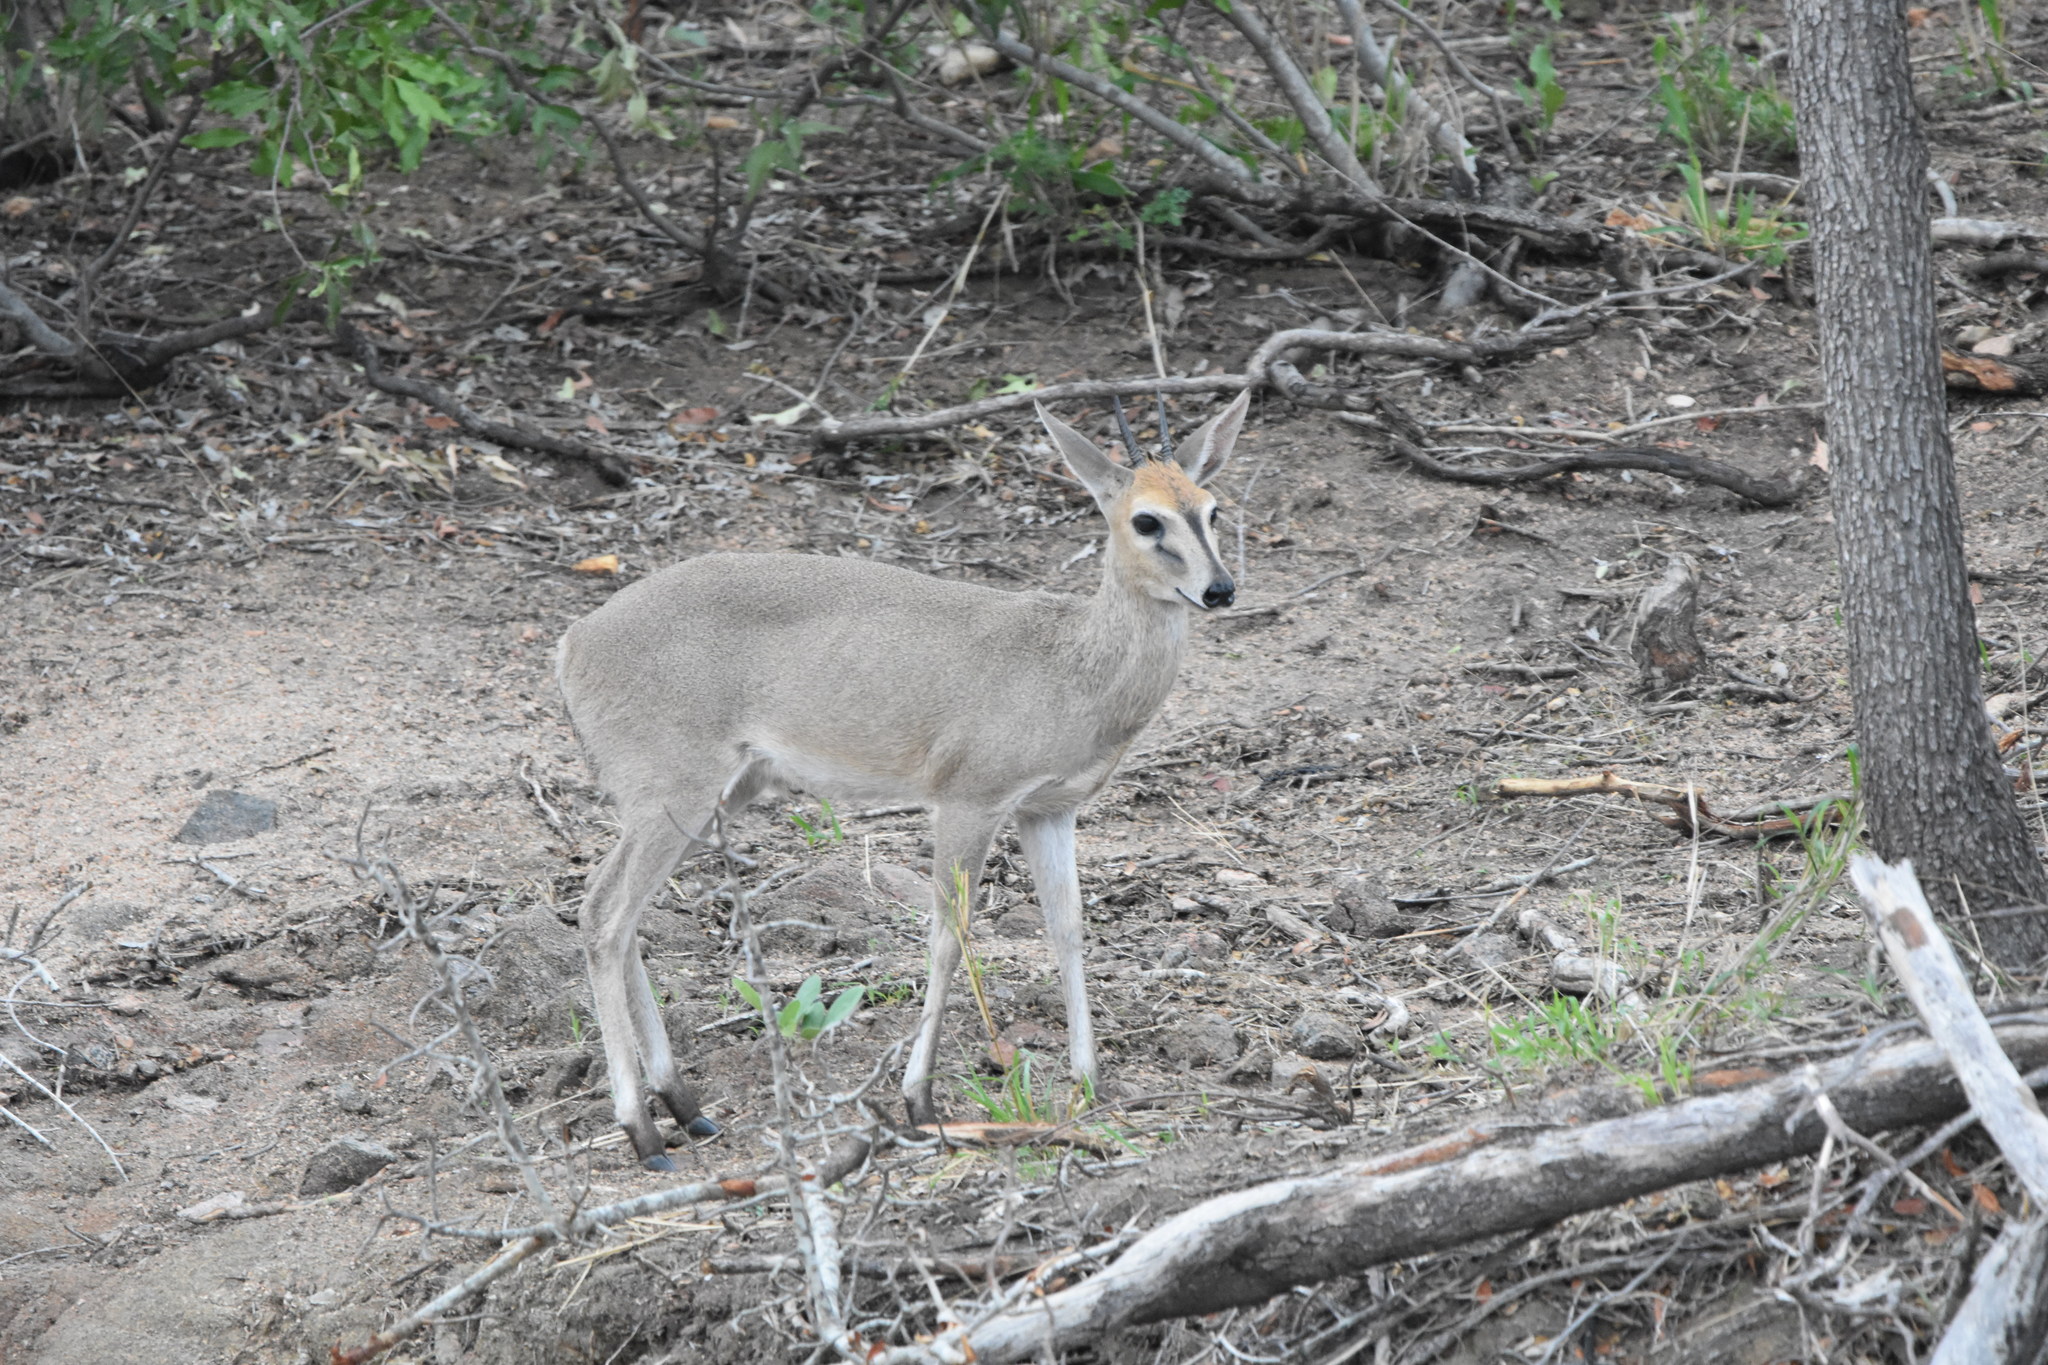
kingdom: Animalia
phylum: Chordata
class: Mammalia
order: Artiodactyla
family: Bovidae
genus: Sylvicapra
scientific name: Sylvicapra grimmia
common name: Bush duiker
